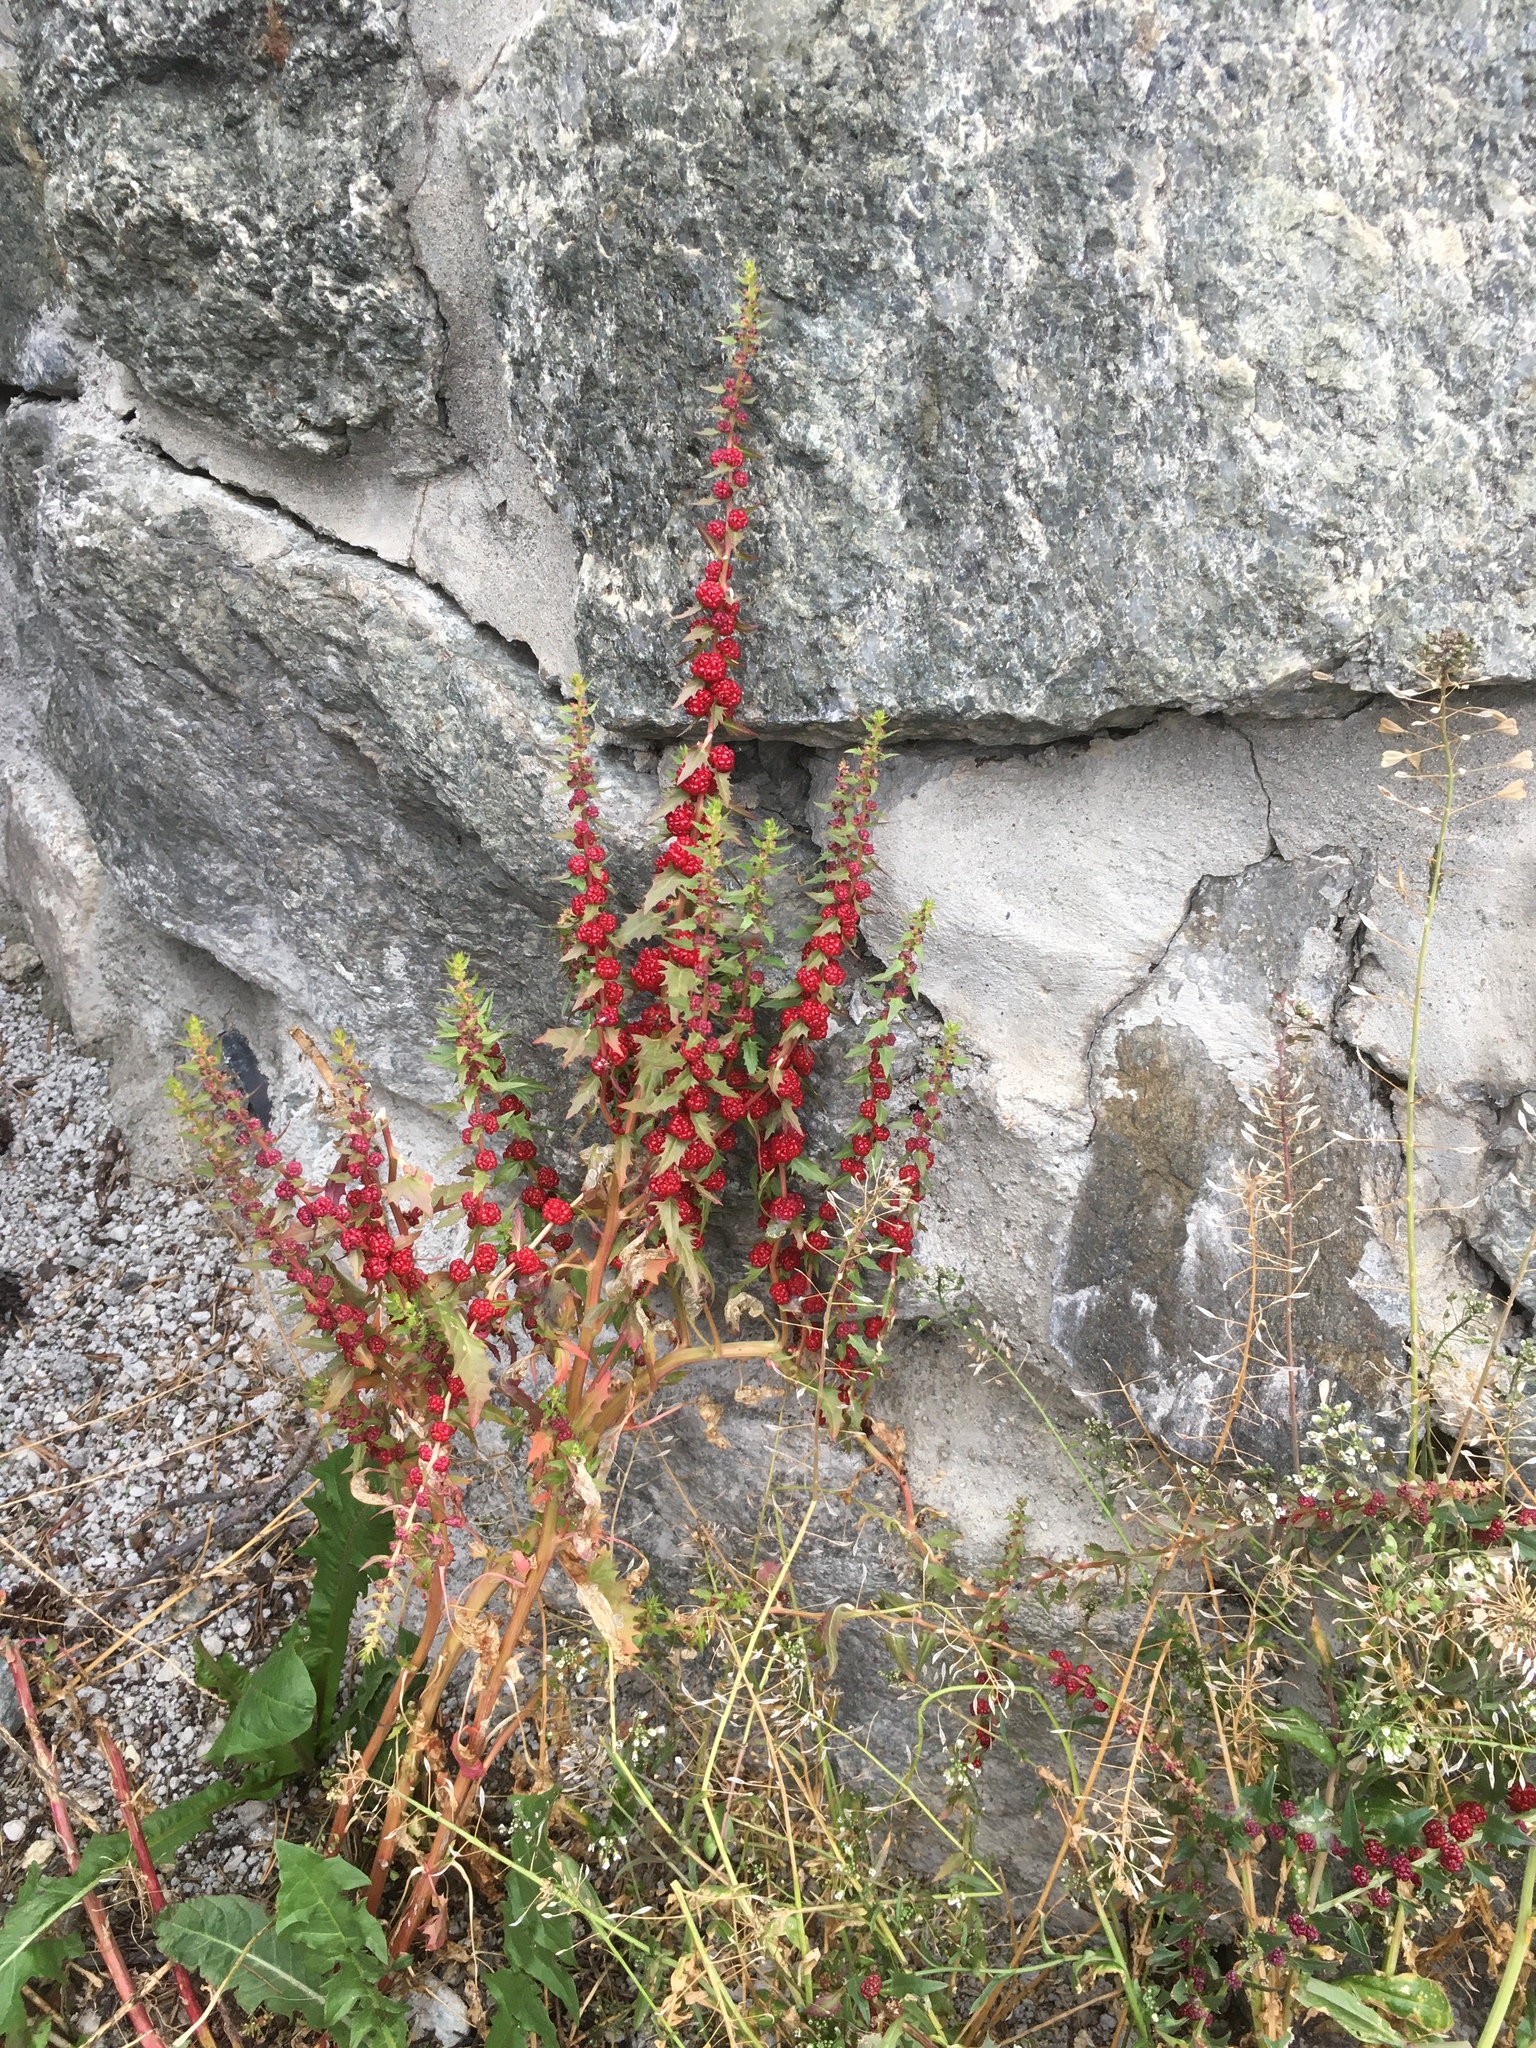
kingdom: Plantae
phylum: Tracheophyta
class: Magnoliopsida
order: Caryophyllales
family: Amaranthaceae
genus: Blitum
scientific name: Blitum virgatum
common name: Strawberry goosefoot
